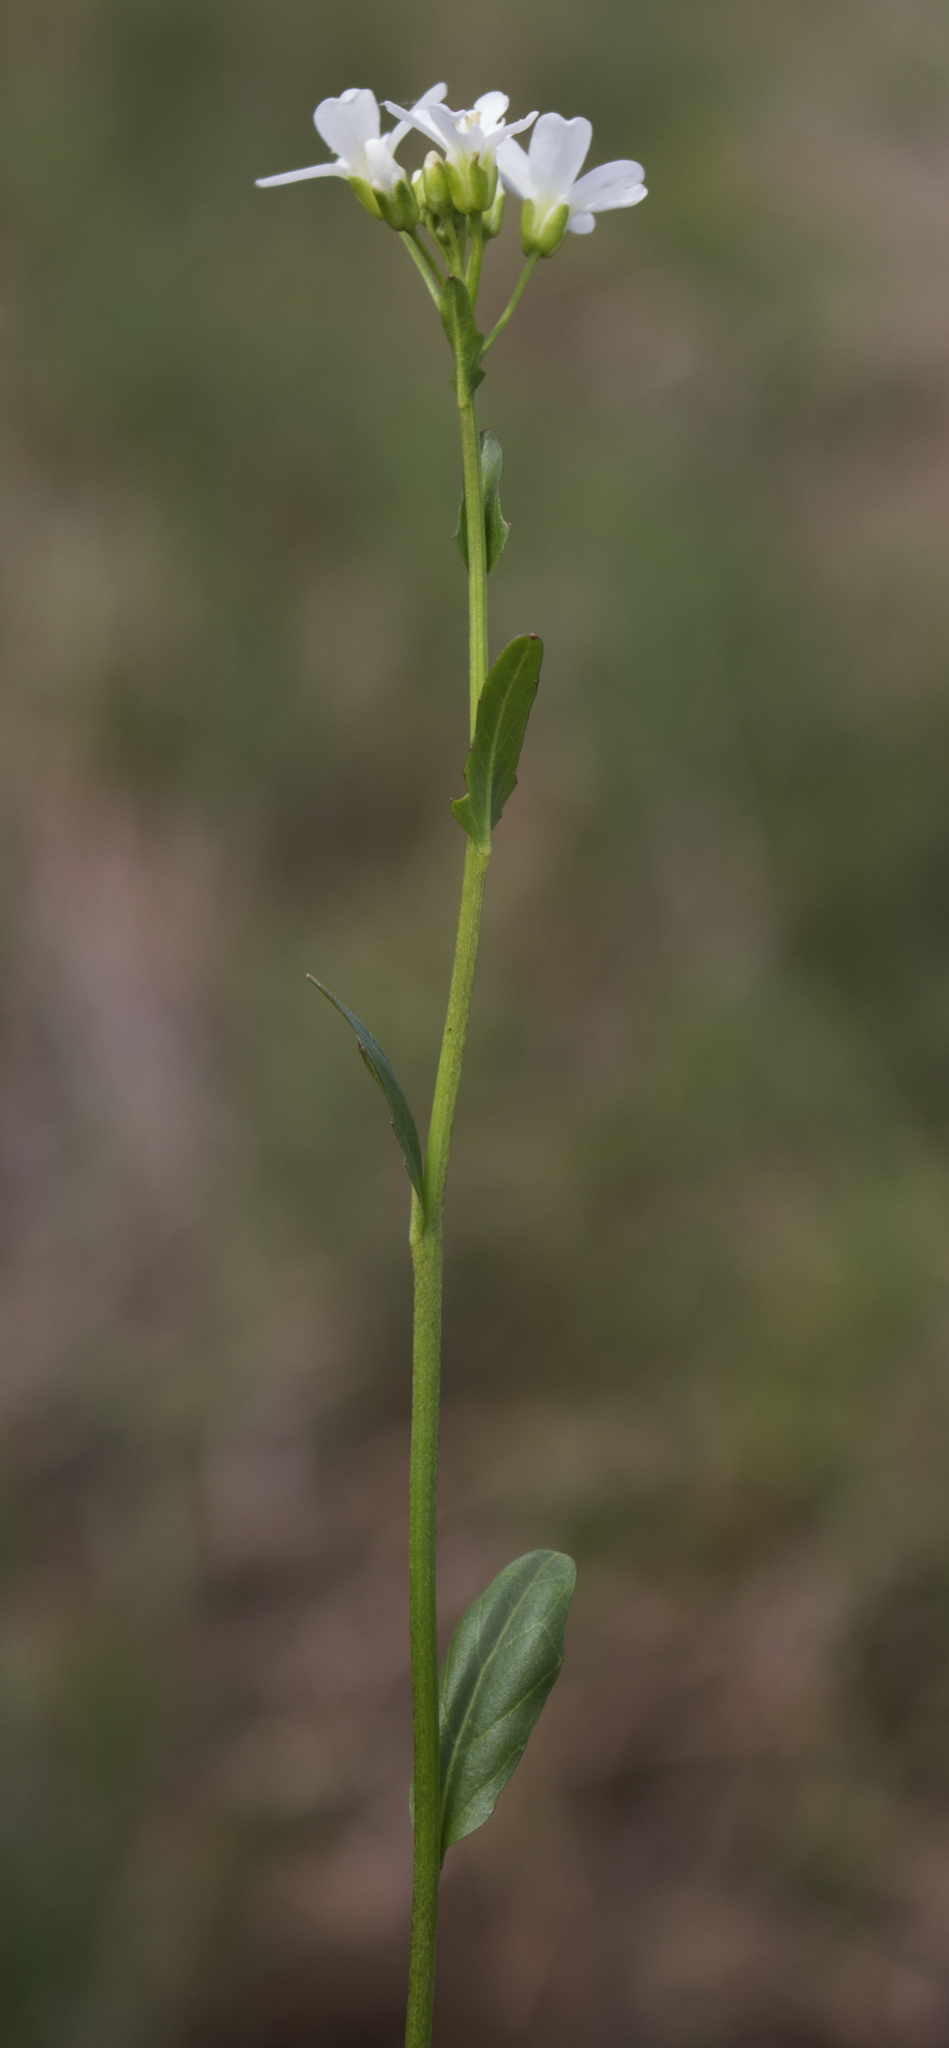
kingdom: Plantae
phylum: Tracheophyta
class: Magnoliopsida
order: Brassicales
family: Brassicaceae
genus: Cardamine
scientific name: Cardamine bulbosa
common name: Spring cress
